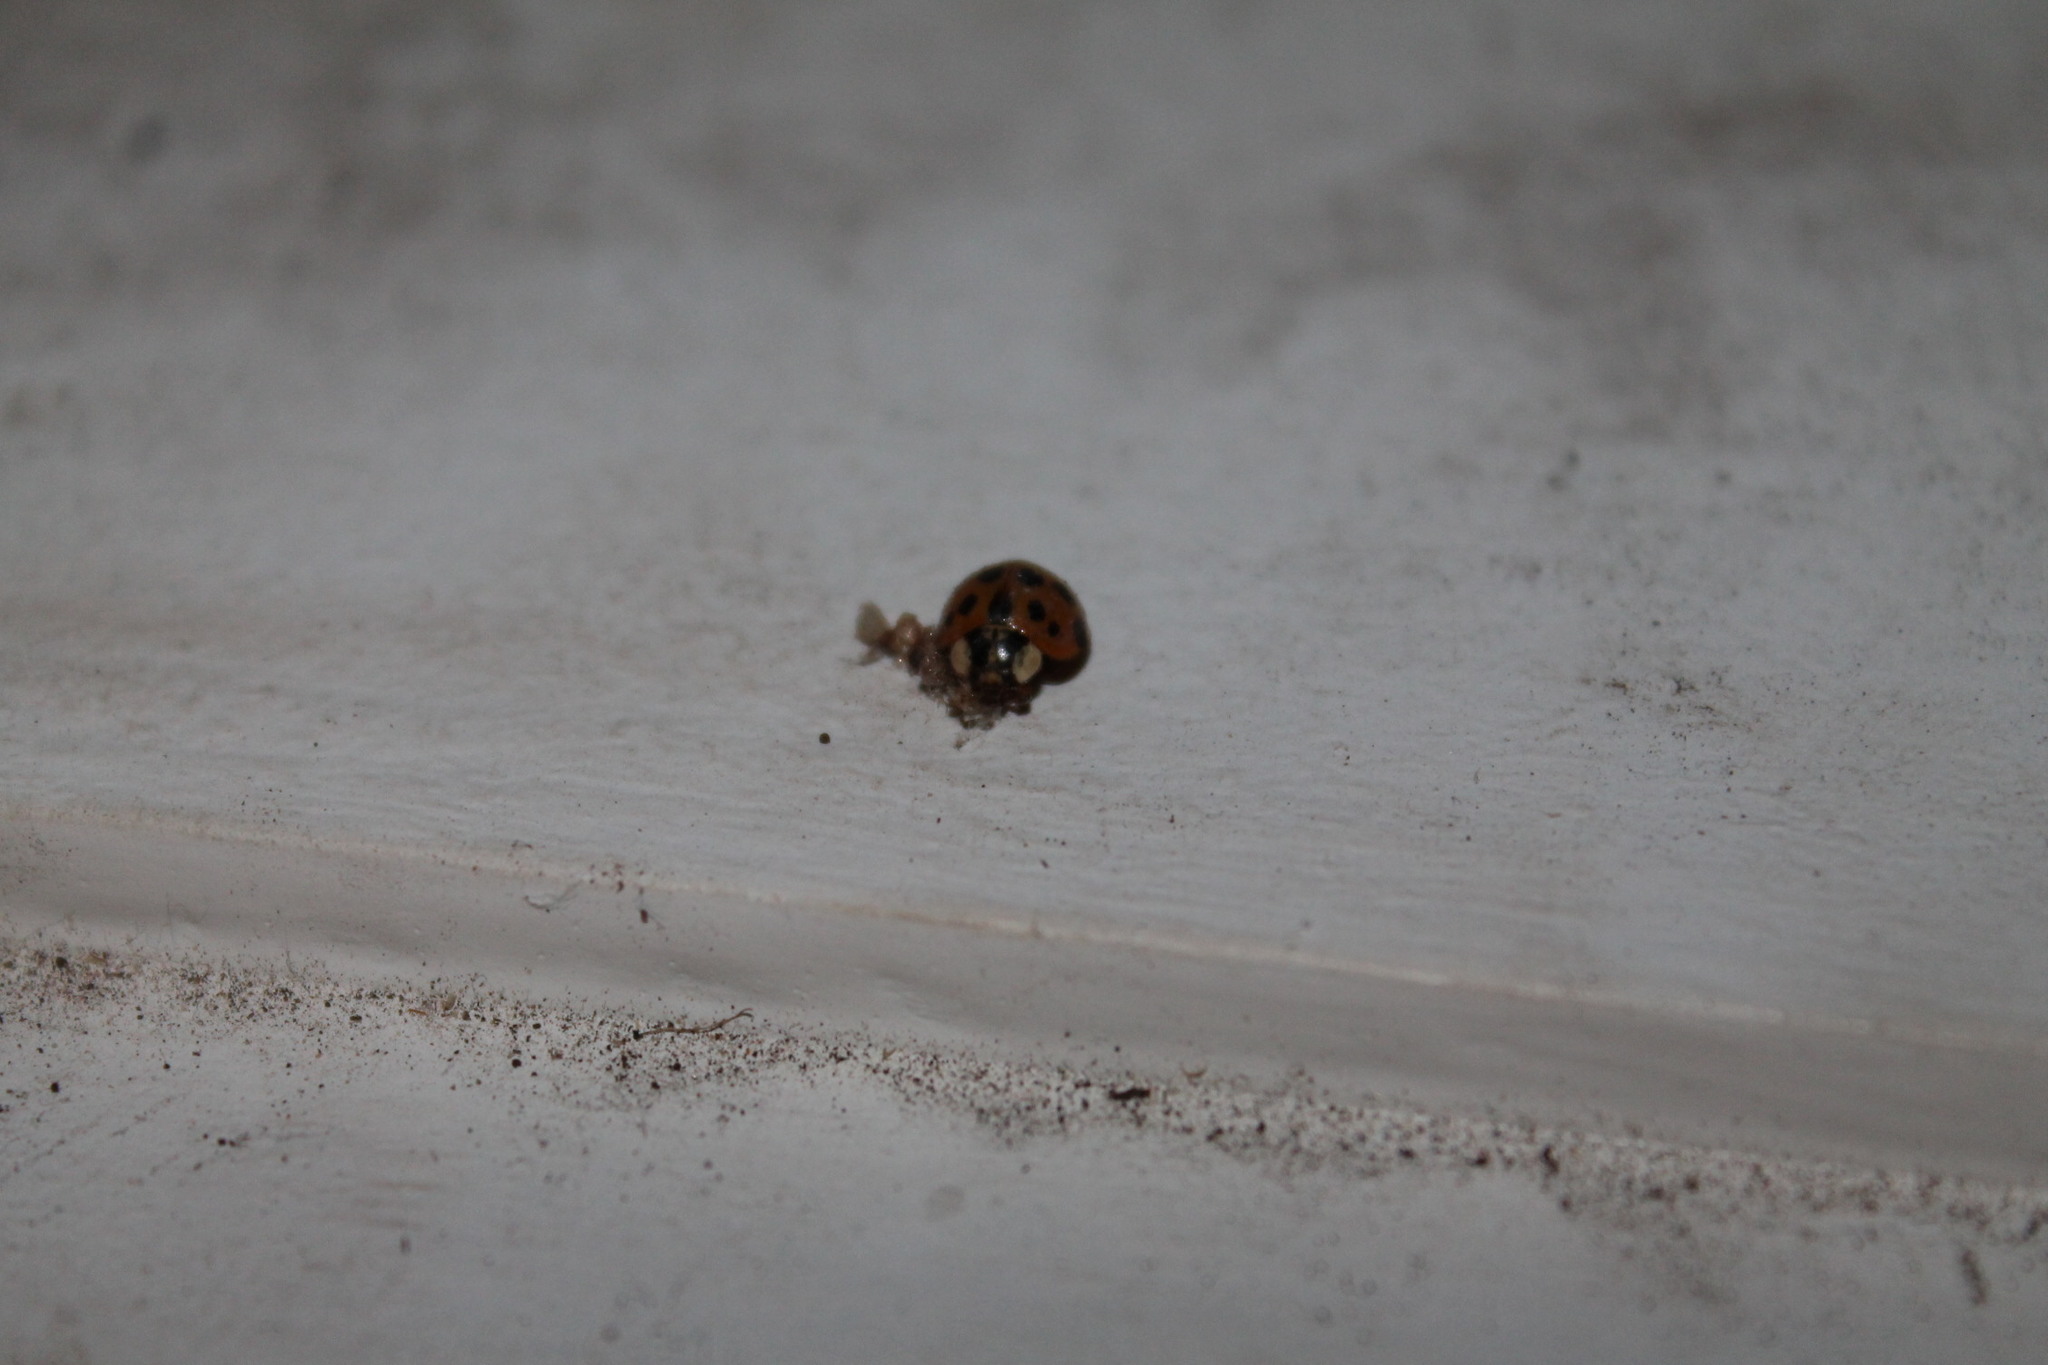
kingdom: Animalia
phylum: Arthropoda
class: Insecta
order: Coleoptera
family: Coccinellidae
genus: Harmonia
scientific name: Harmonia axyridis
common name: Harlequin ladybird
